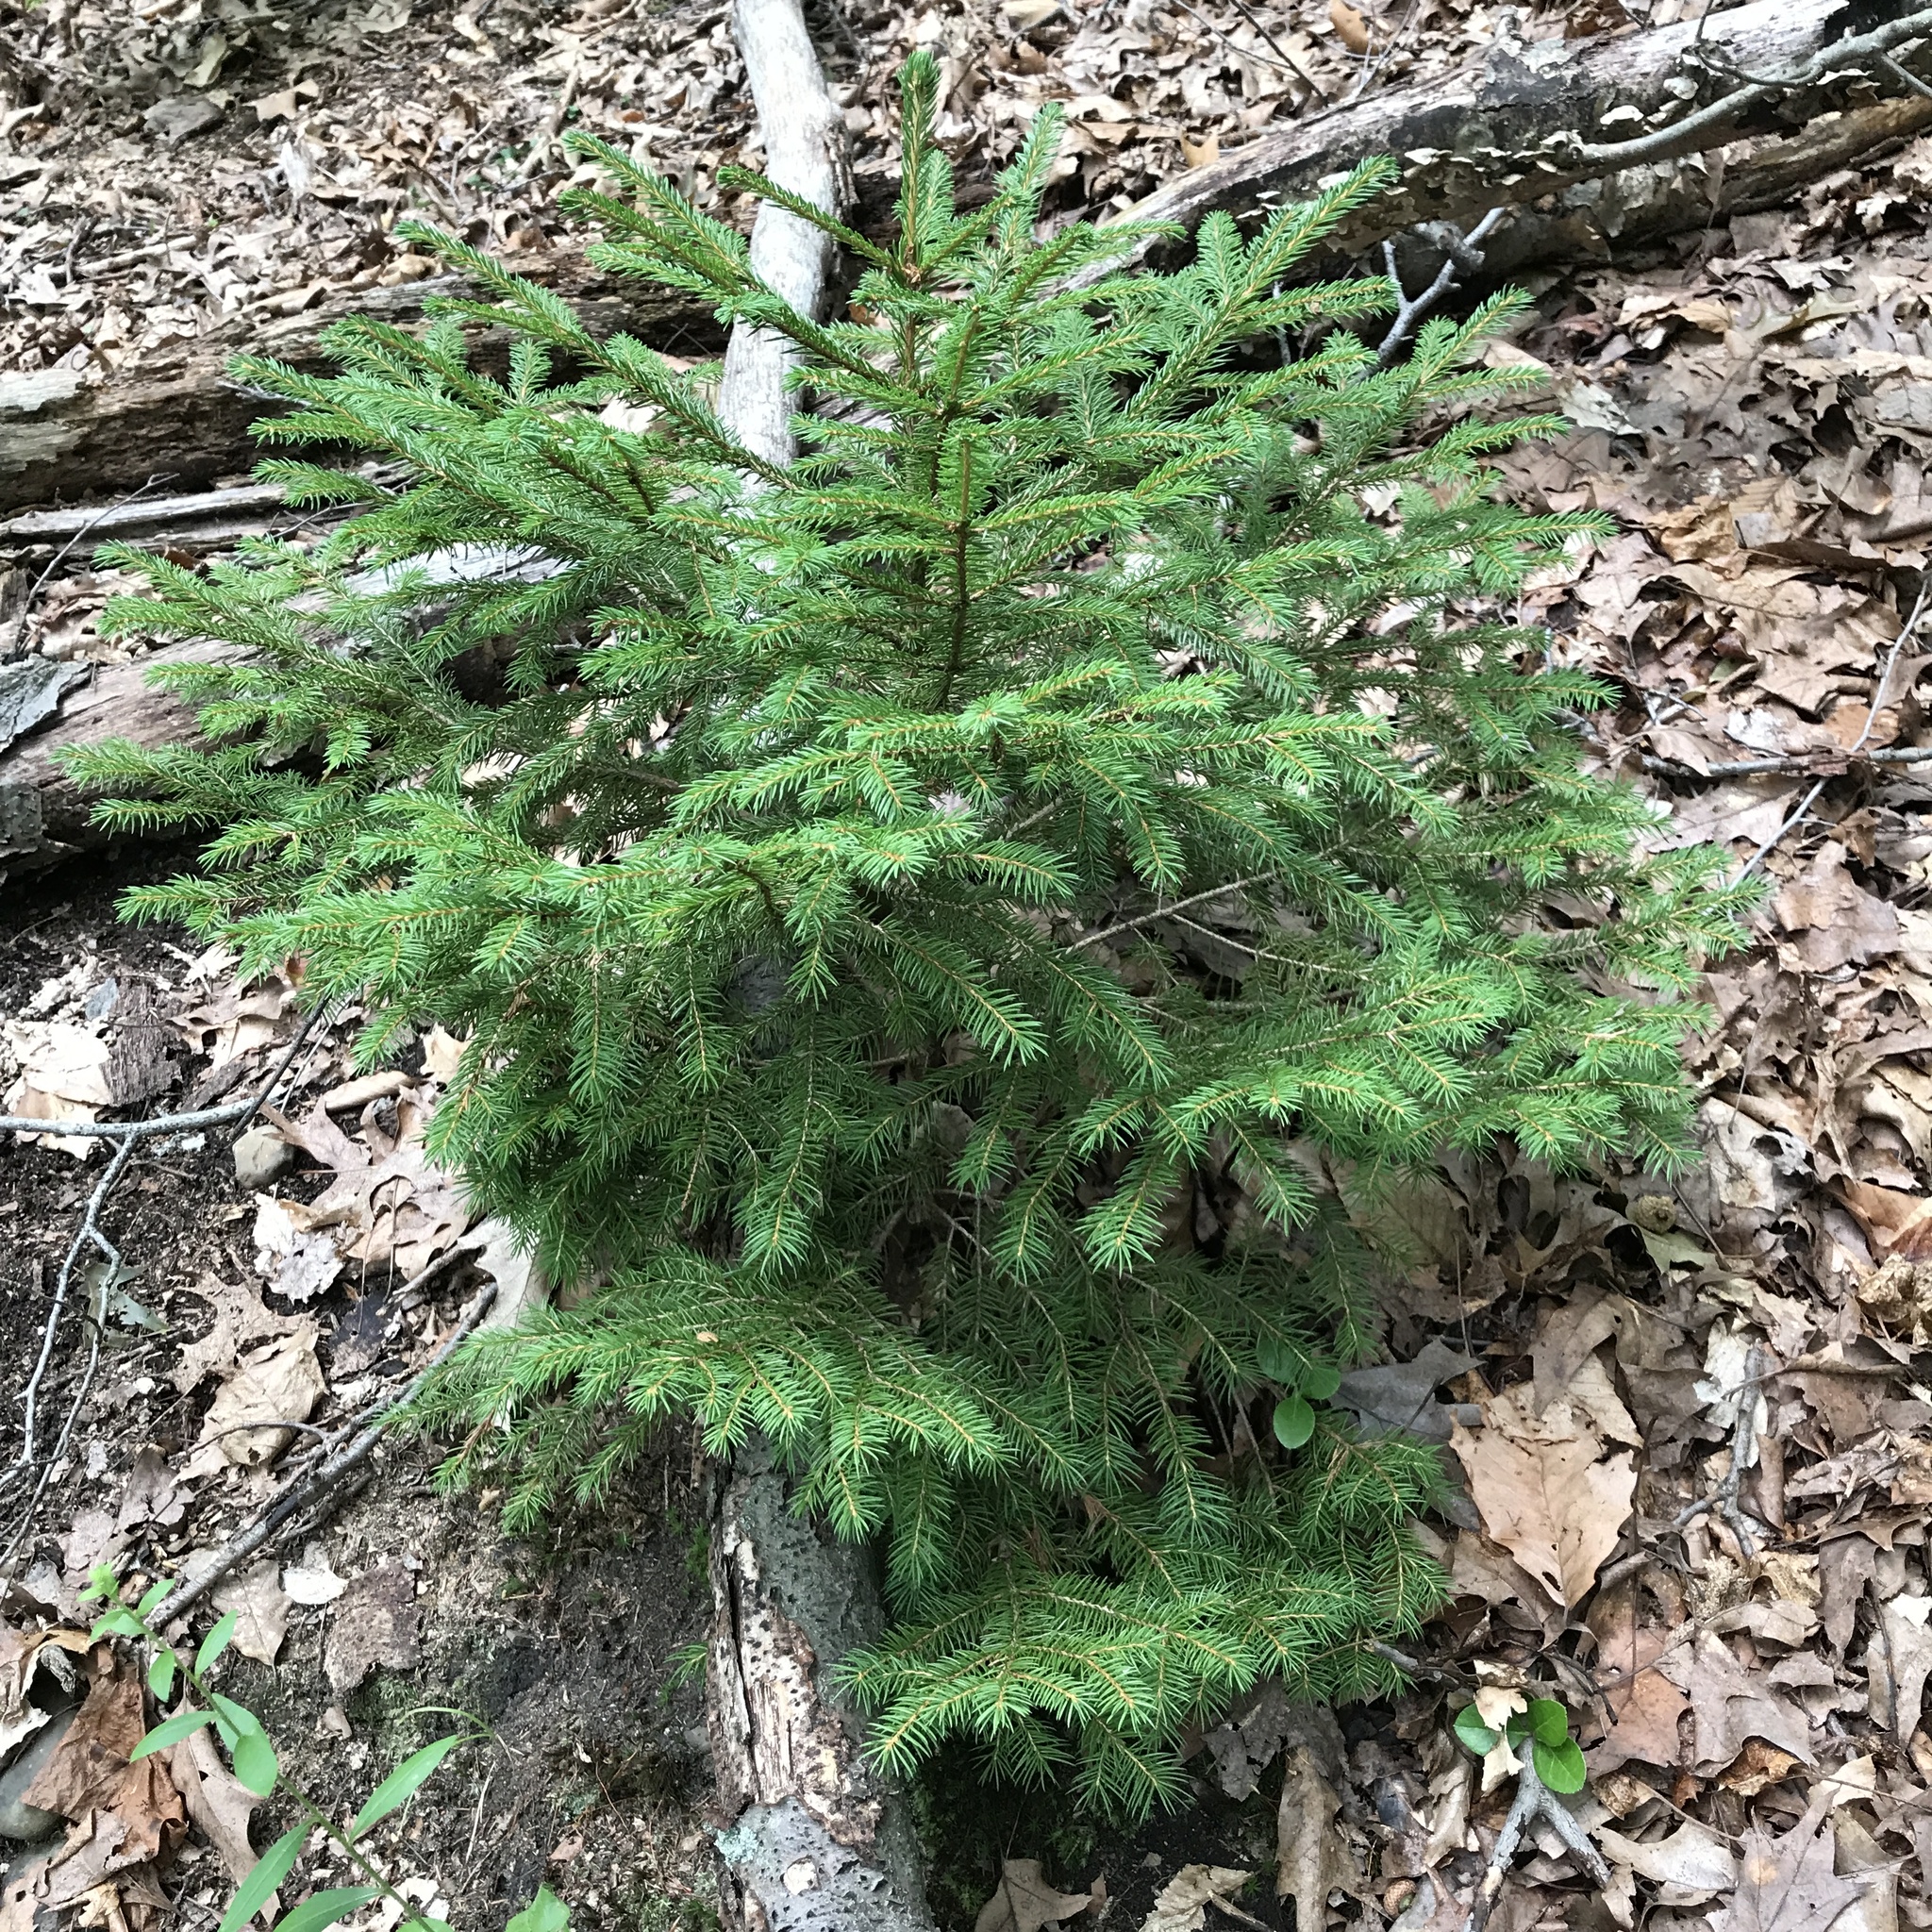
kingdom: Plantae
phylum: Tracheophyta
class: Pinopsida
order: Pinales
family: Pinaceae
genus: Picea
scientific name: Picea abies
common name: Norway spruce
